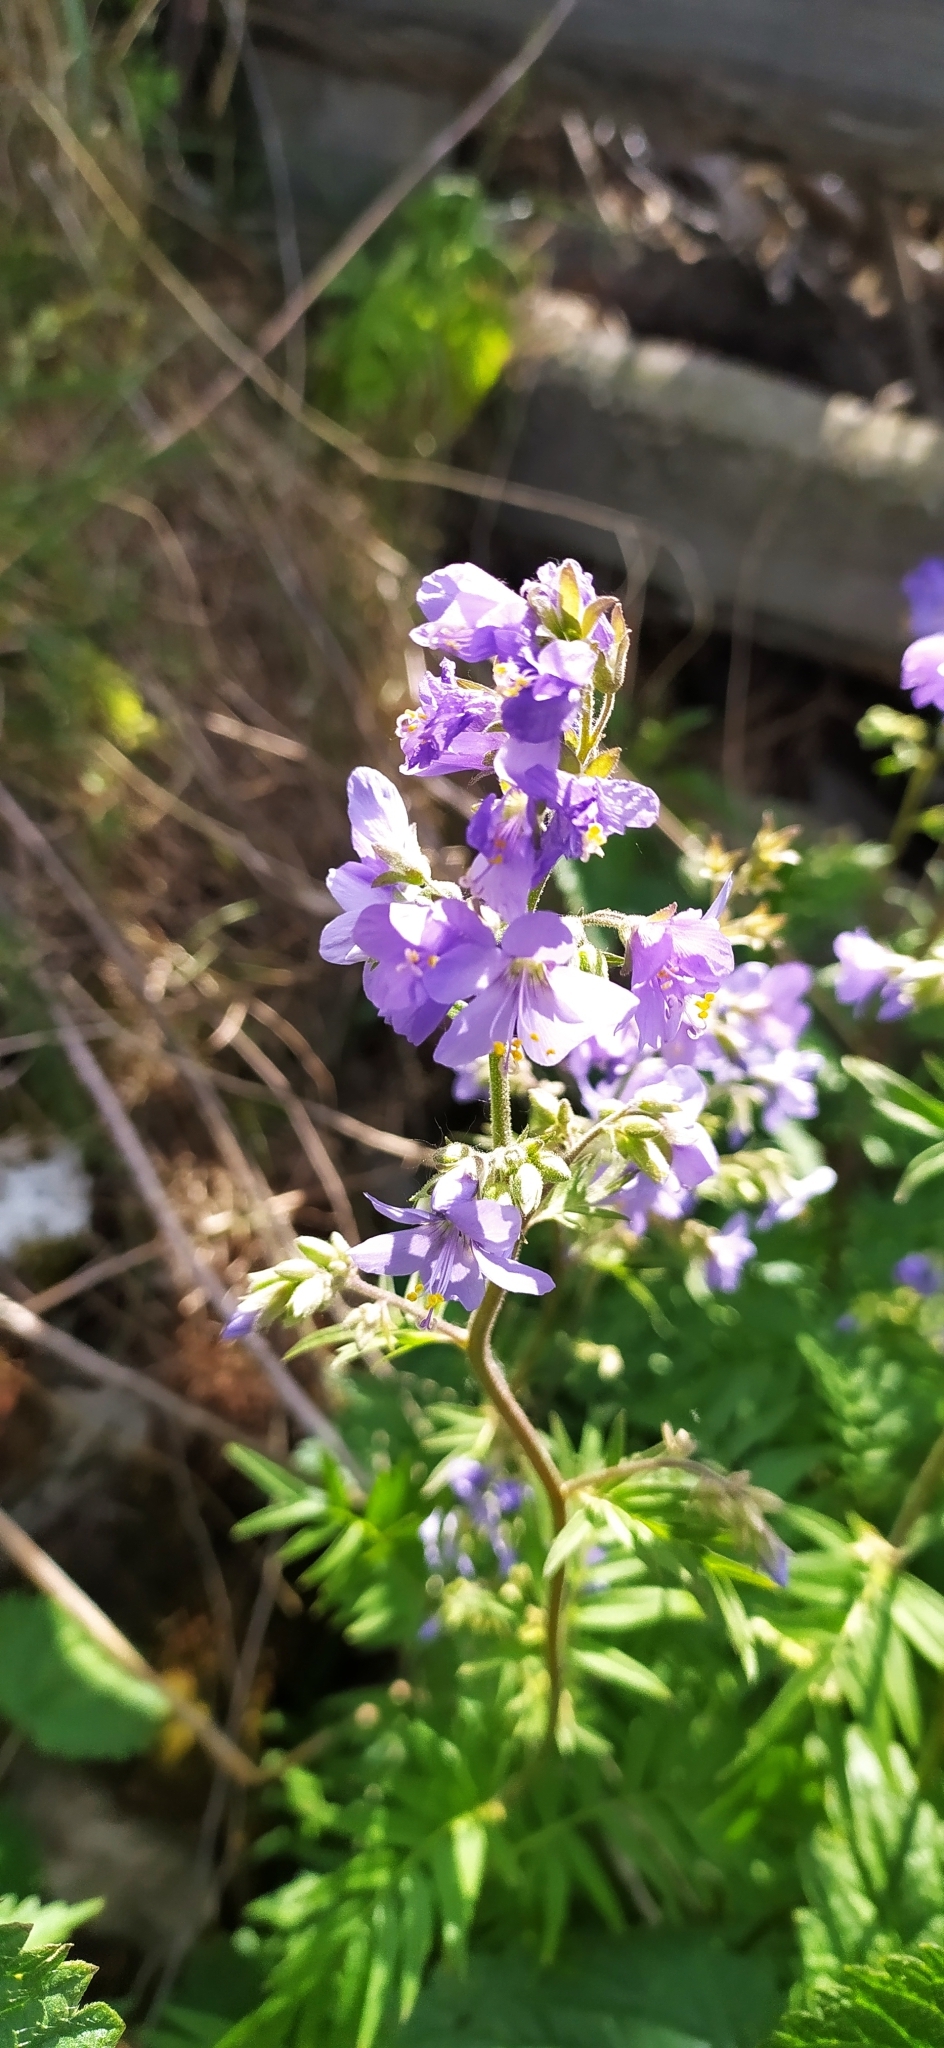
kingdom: Plantae
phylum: Tracheophyta
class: Magnoliopsida
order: Ericales
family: Polemoniaceae
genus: Polemonium
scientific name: Polemonium caeruleum
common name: Jacob's-ladder
